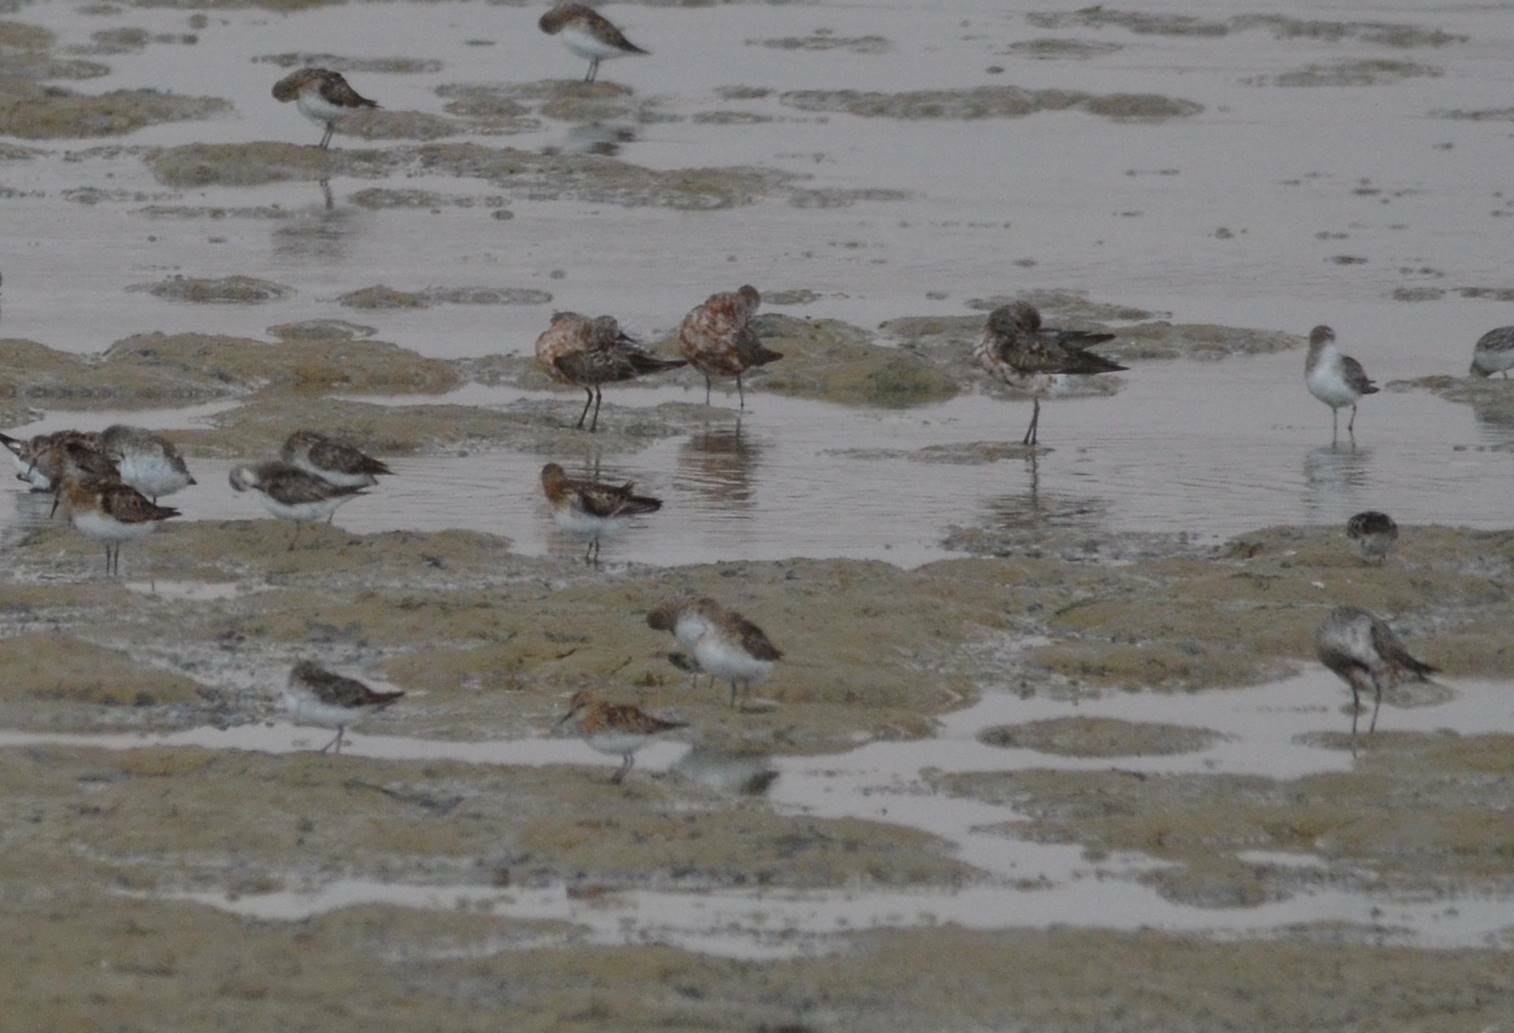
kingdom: Animalia
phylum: Chordata
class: Aves
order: Charadriiformes
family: Scolopacidae
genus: Calidris
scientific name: Calidris ferruginea
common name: Curlew sandpiper
